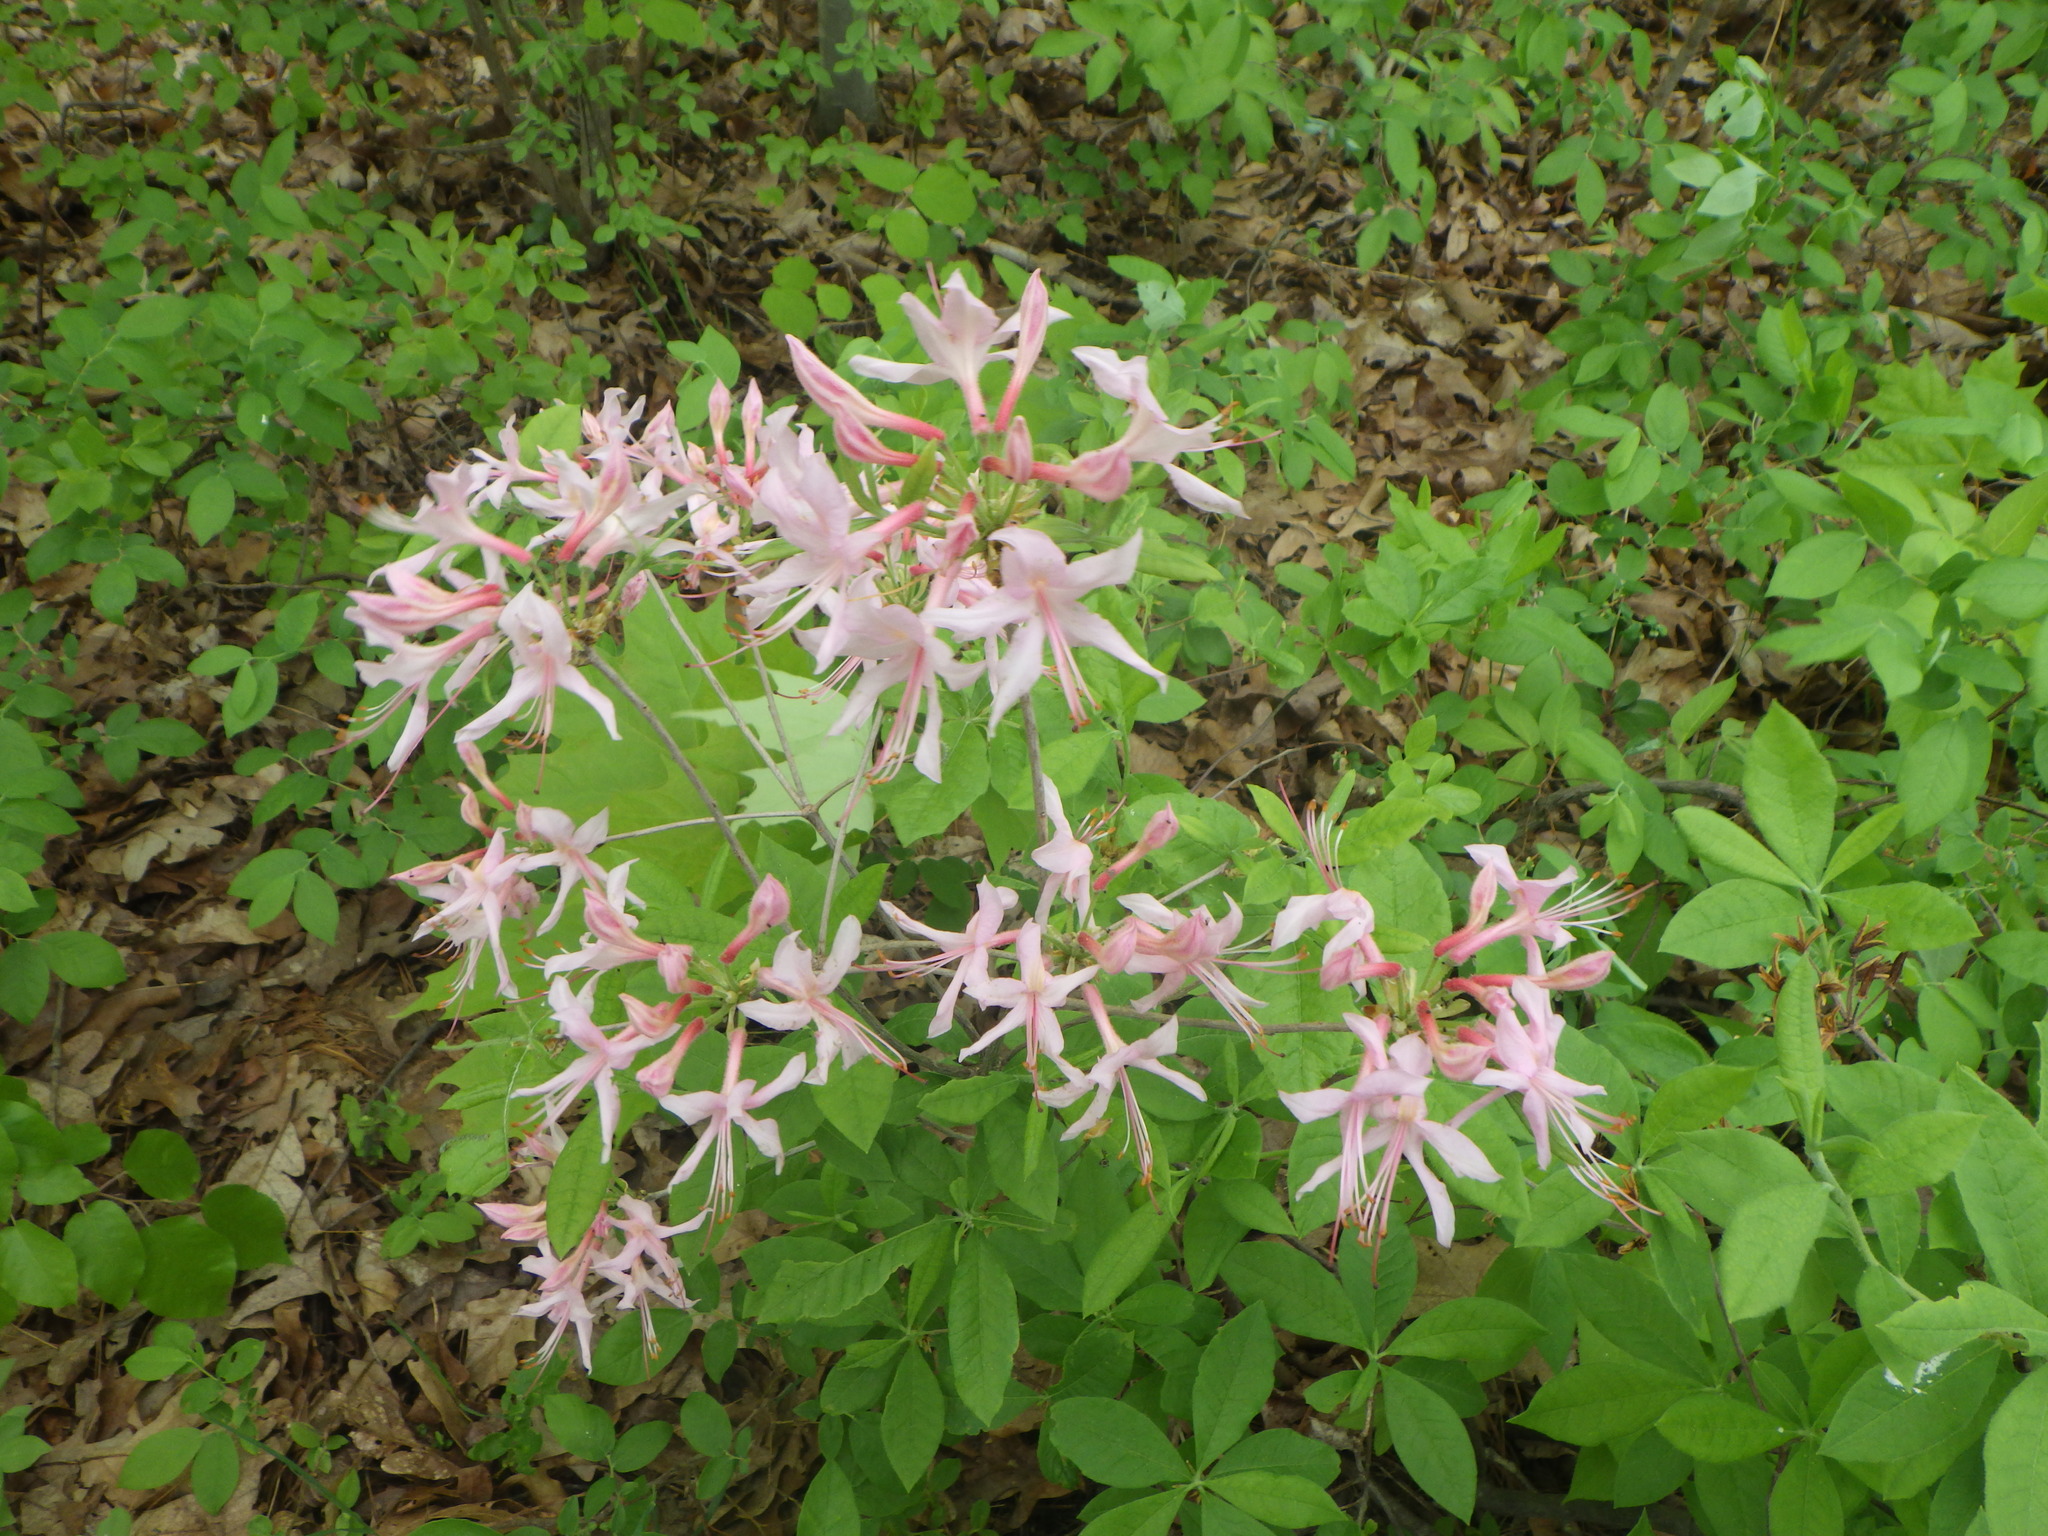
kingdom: Plantae
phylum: Tracheophyta
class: Magnoliopsida
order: Ericales
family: Ericaceae
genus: Rhododendron
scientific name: Rhododendron roseum
